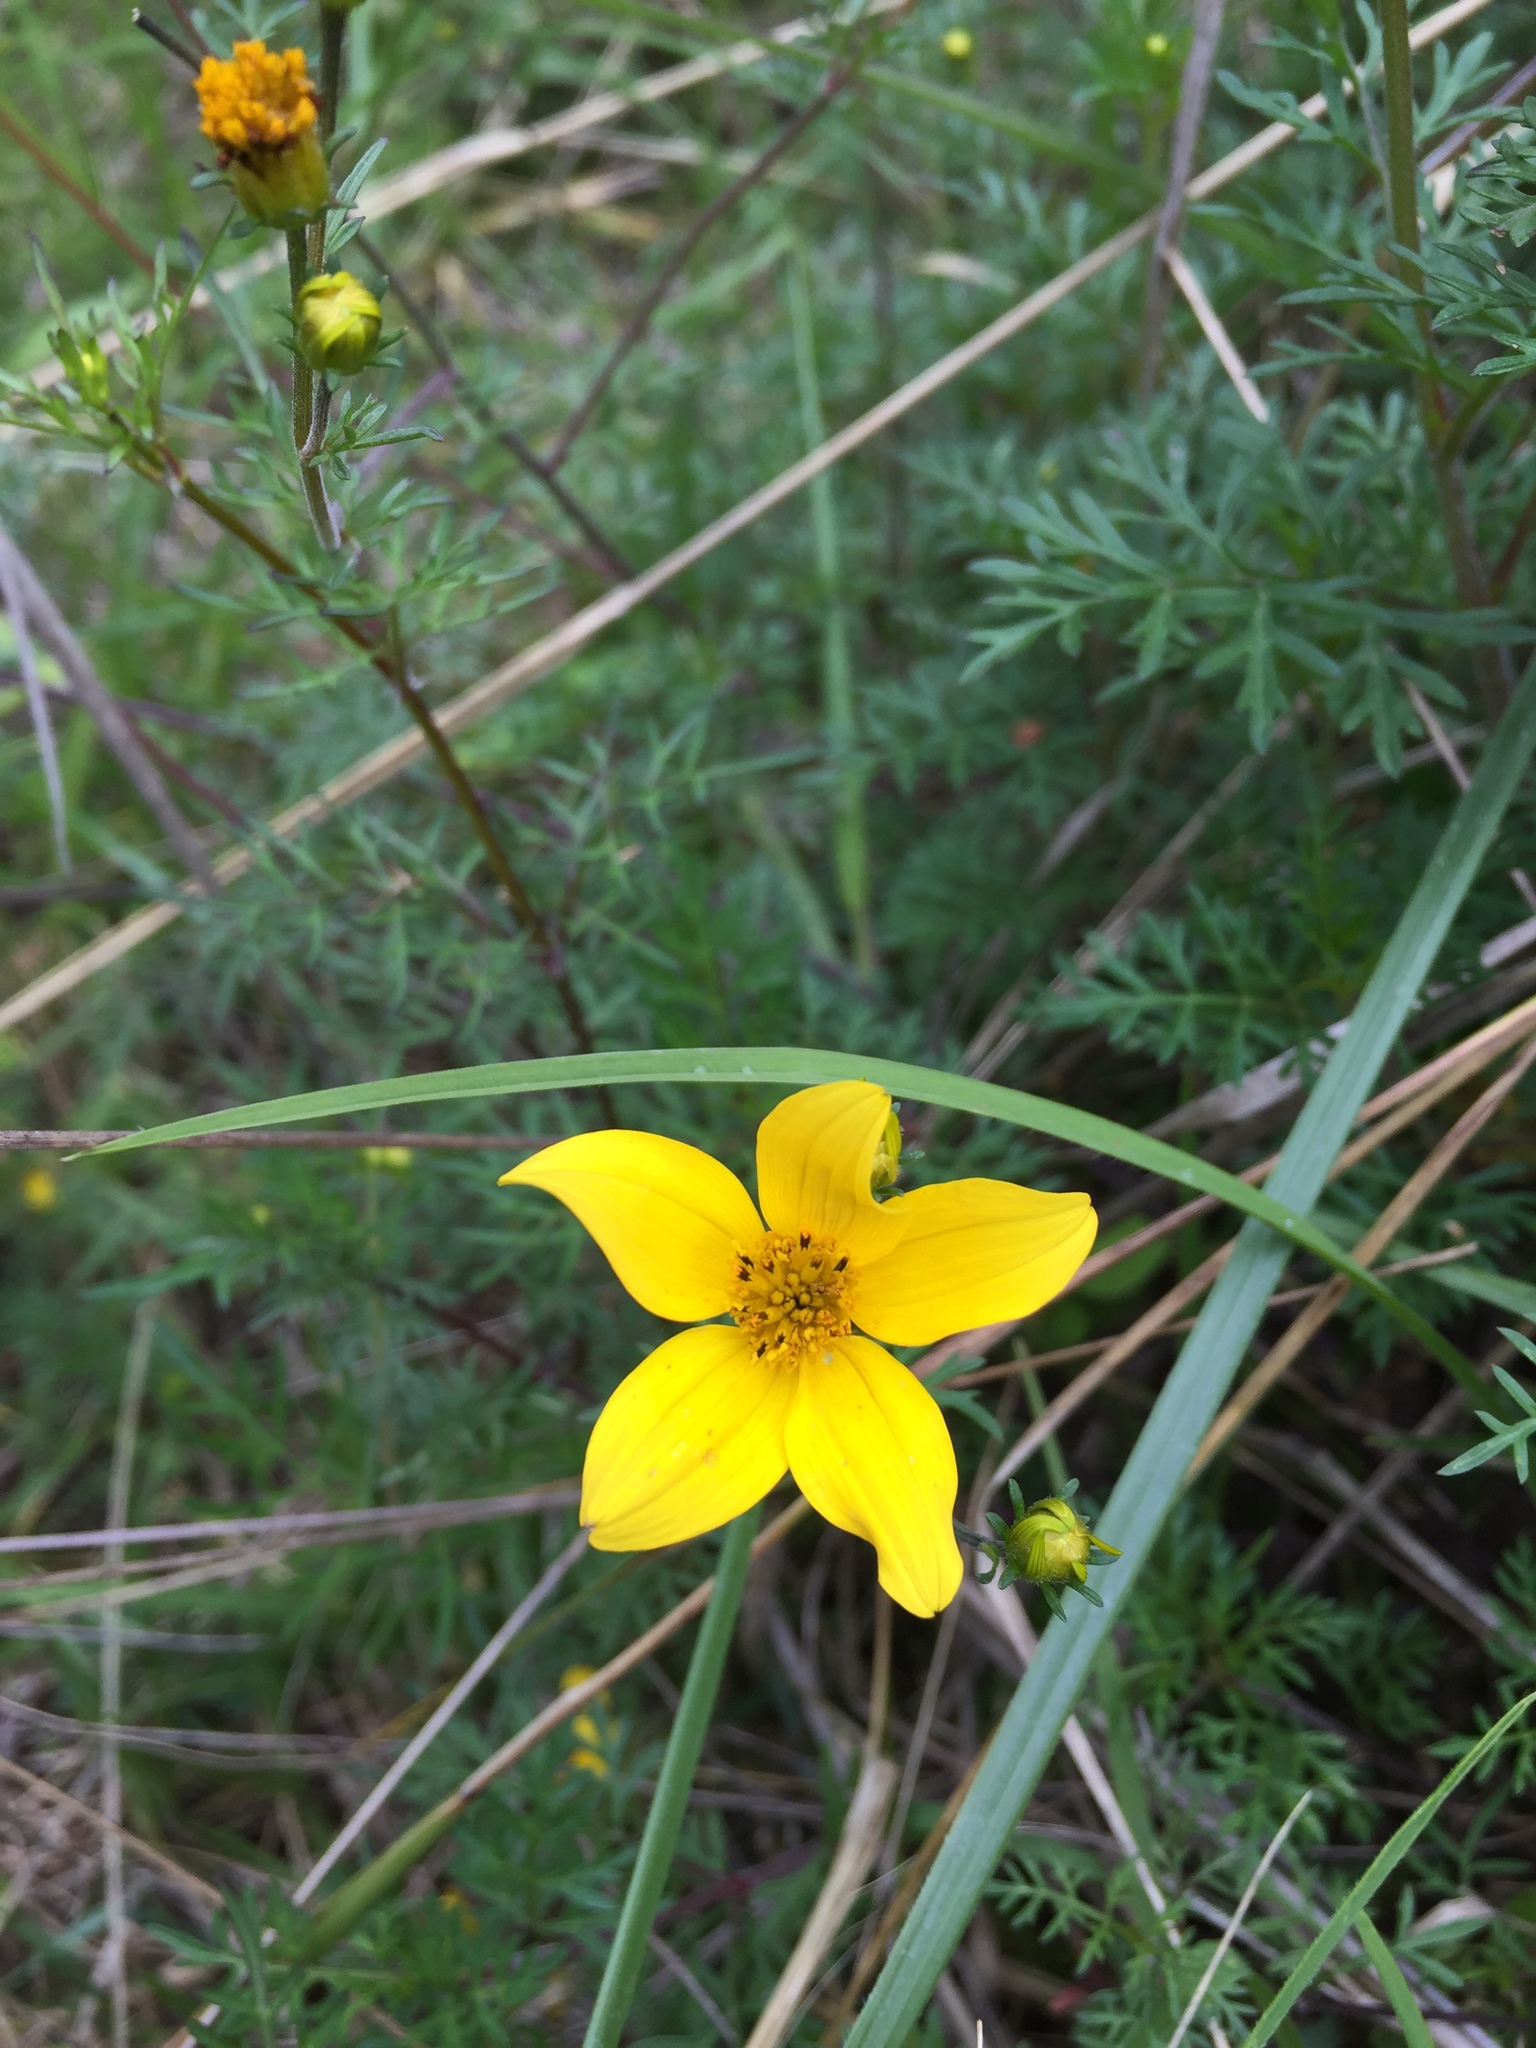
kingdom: Plantae
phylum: Tracheophyta
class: Magnoliopsida
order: Asterales
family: Asteraceae
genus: Bidens
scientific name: Bidens andicola
